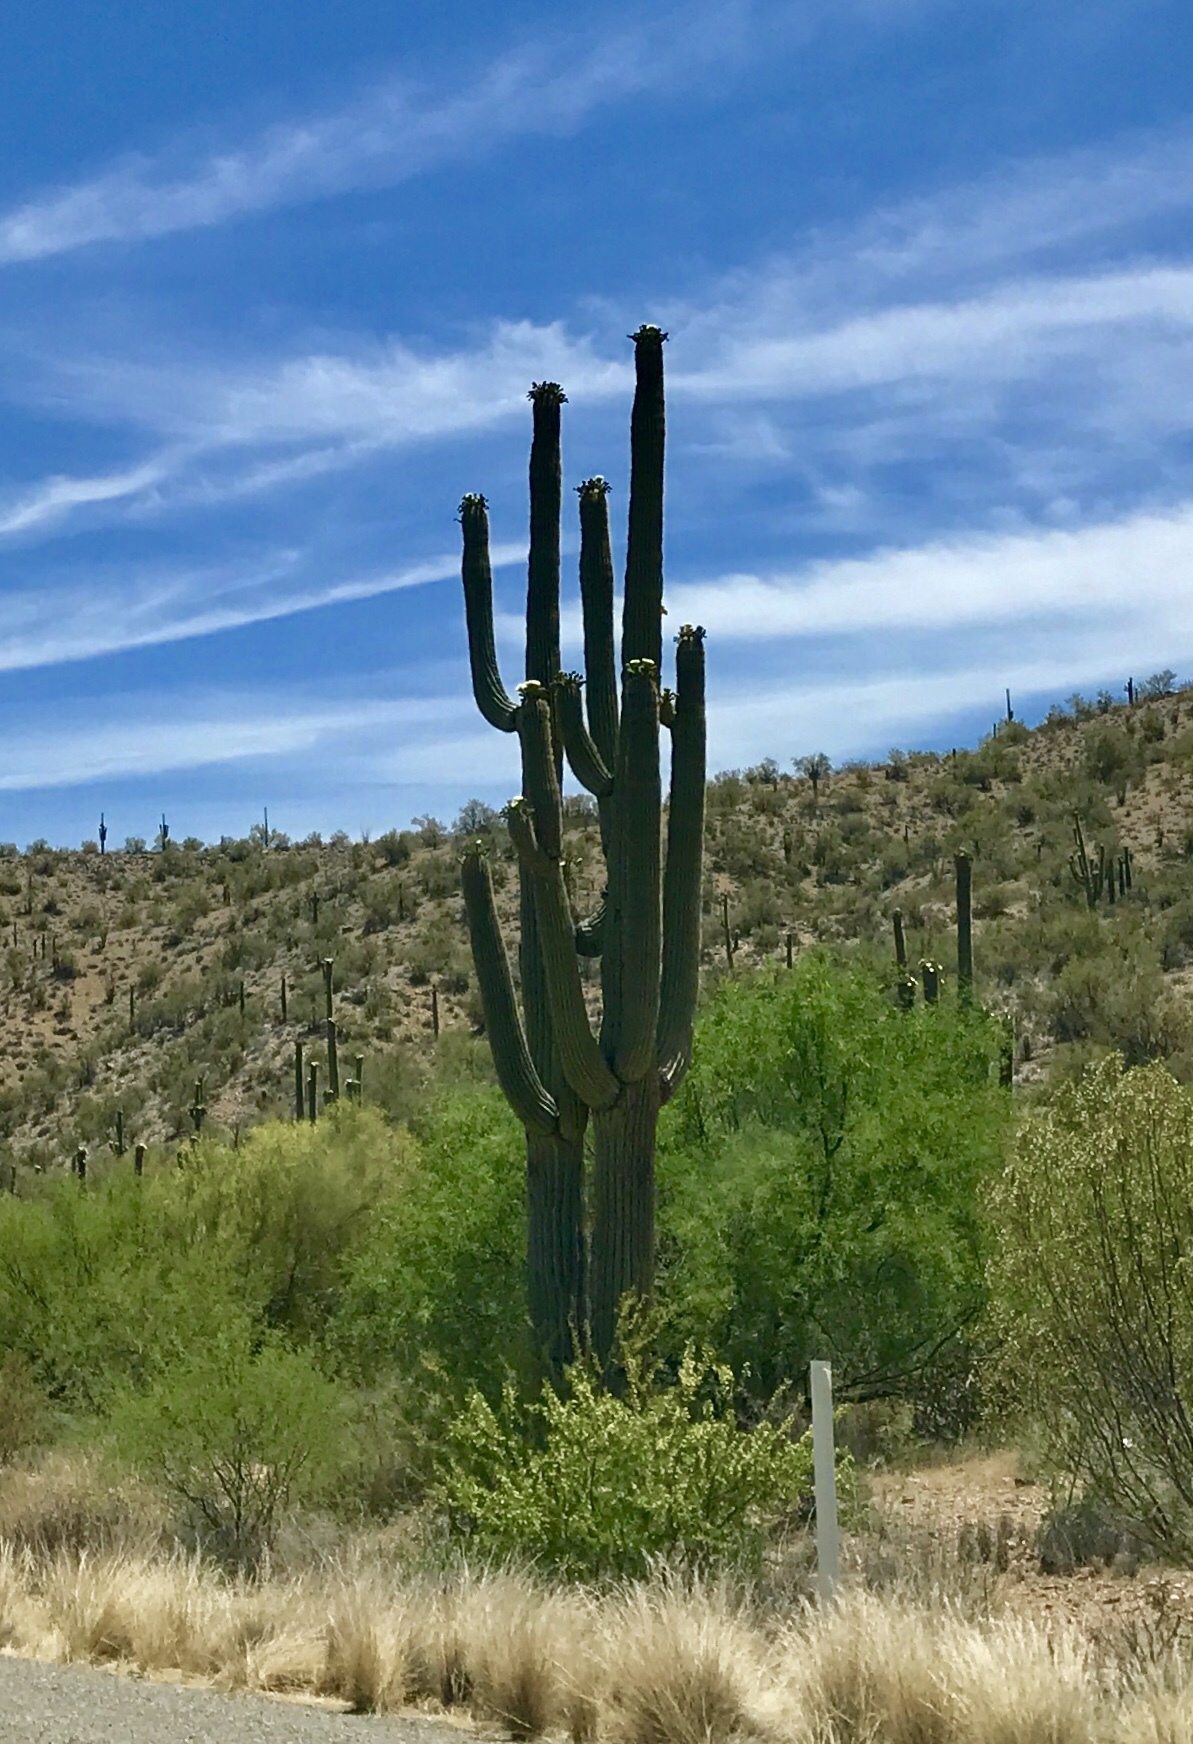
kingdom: Plantae
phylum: Tracheophyta
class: Magnoliopsida
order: Caryophyllales
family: Cactaceae
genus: Carnegiea
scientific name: Carnegiea gigantea
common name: Saguaro
